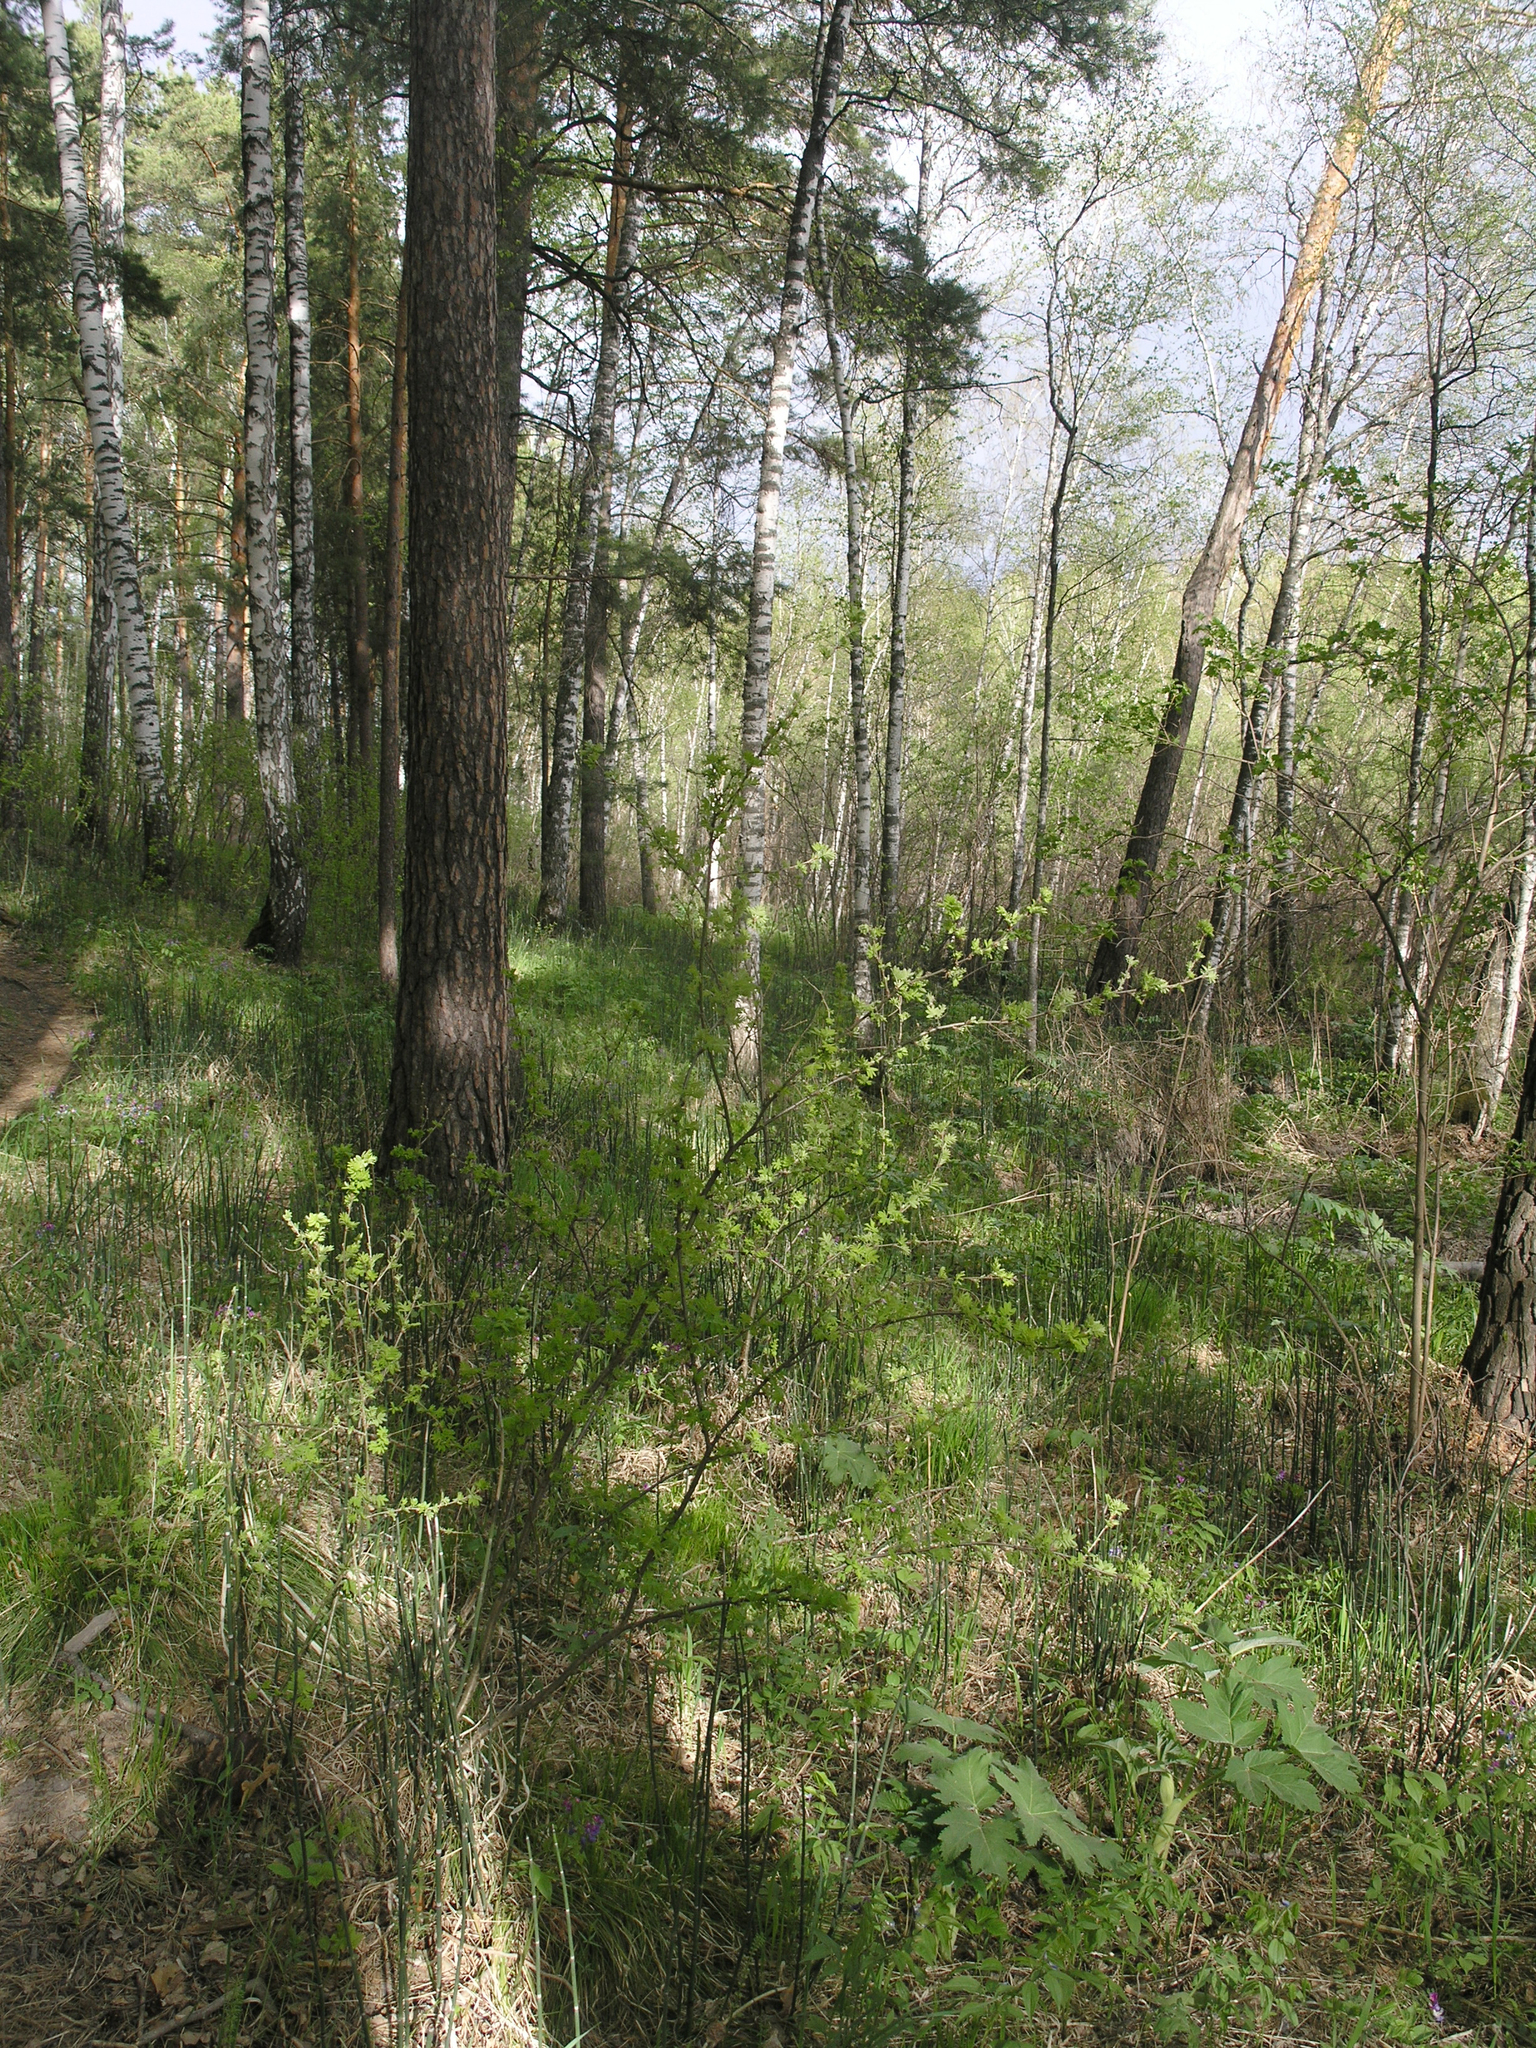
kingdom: Plantae
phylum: Tracheophyta
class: Pinopsida
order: Pinales
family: Pinaceae
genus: Pinus
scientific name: Pinus sylvestris
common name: Scots pine
